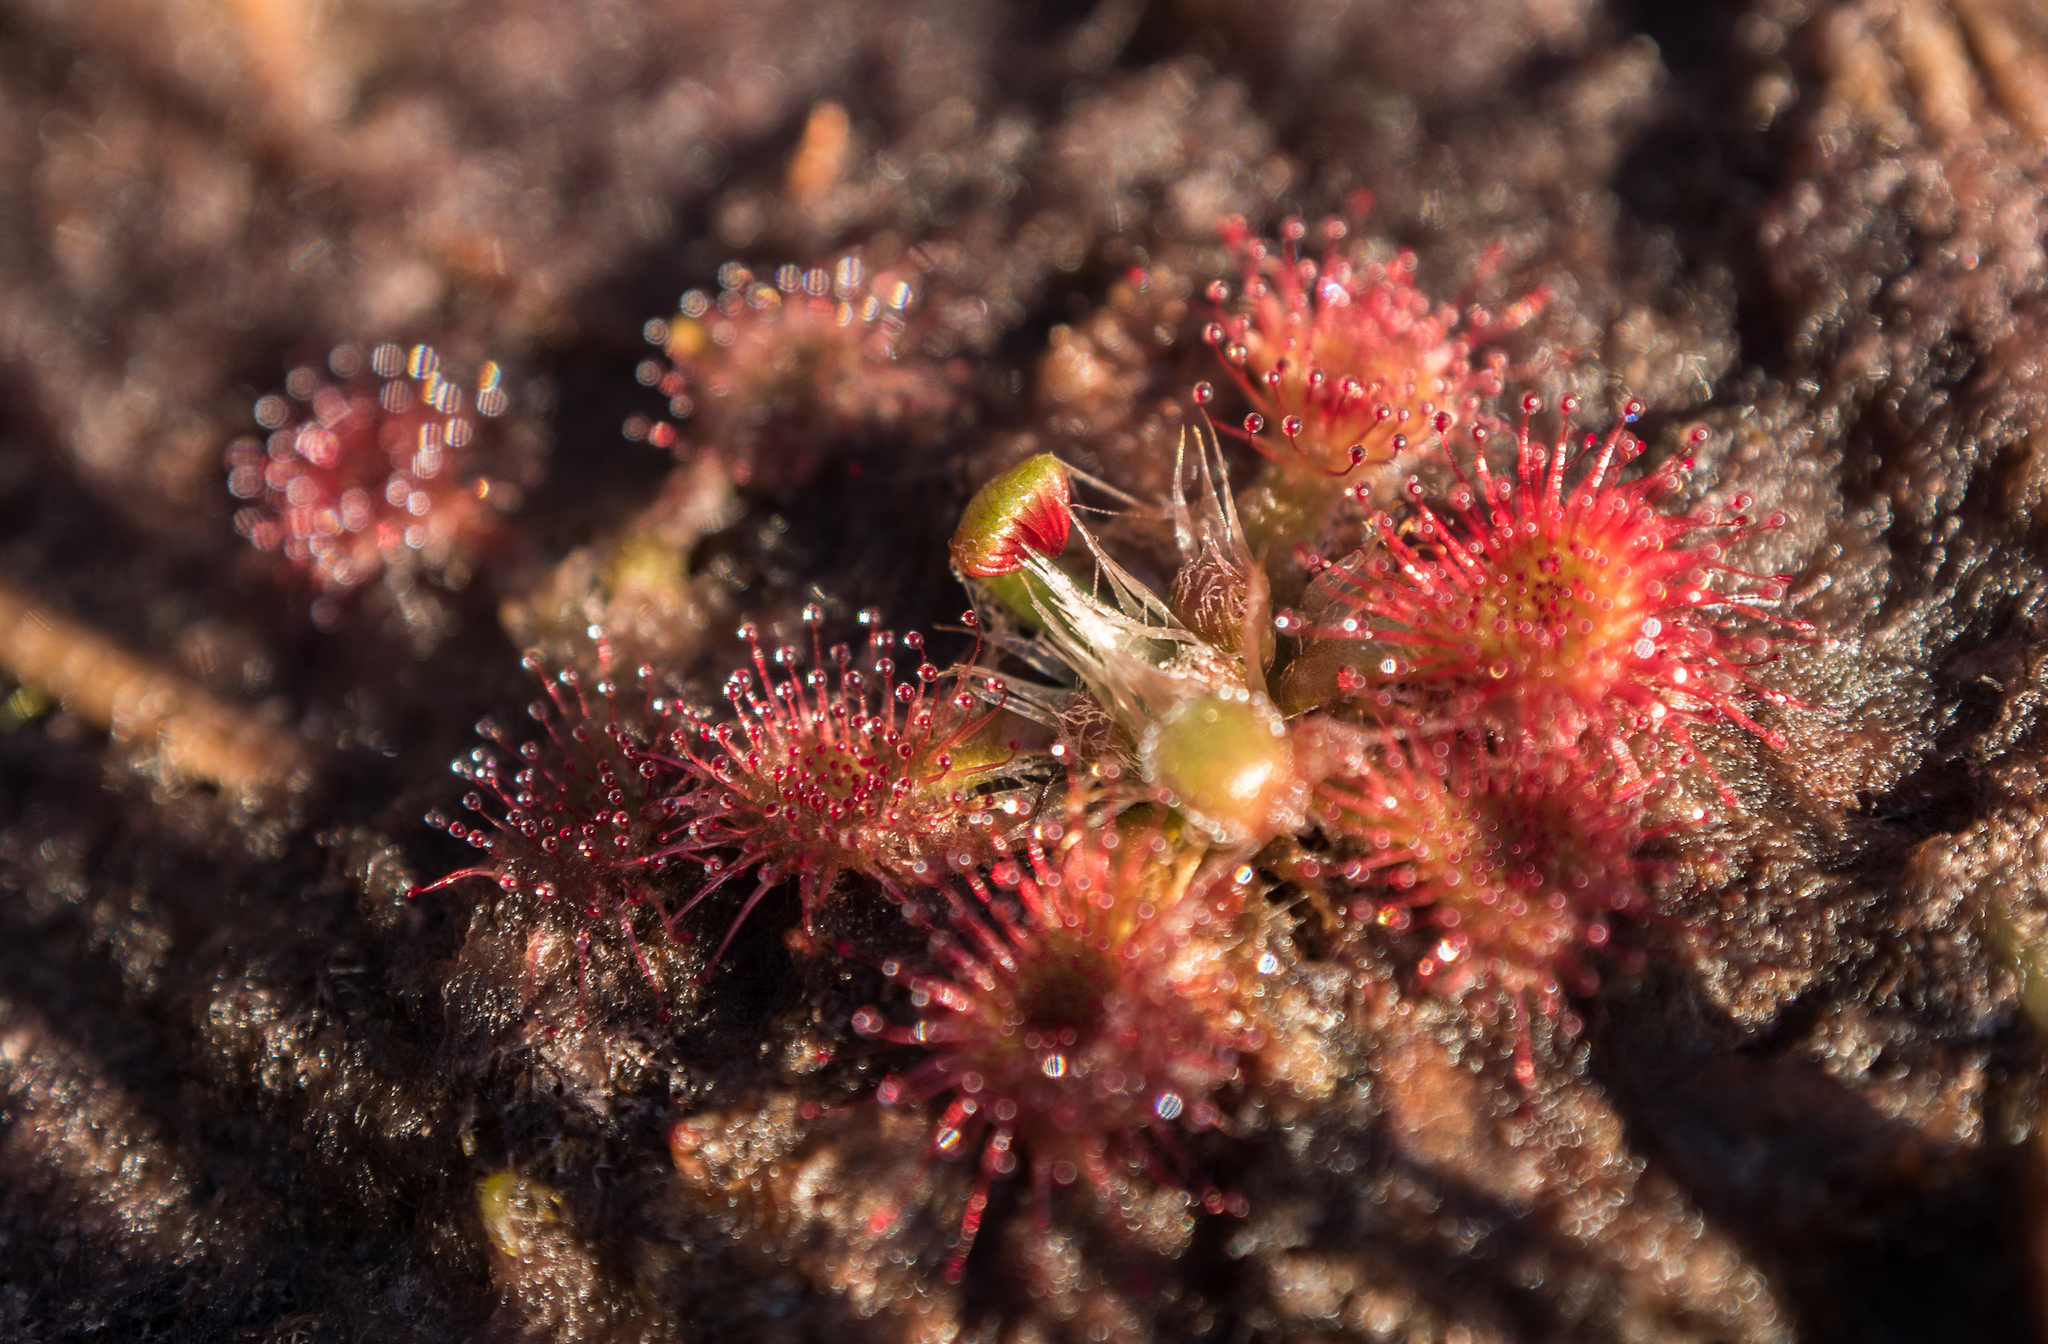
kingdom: Plantae
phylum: Tracheophyta
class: Magnoliopsida
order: Caryophyllales
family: Droseraceae
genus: Drosera
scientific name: Drosera spatulata
